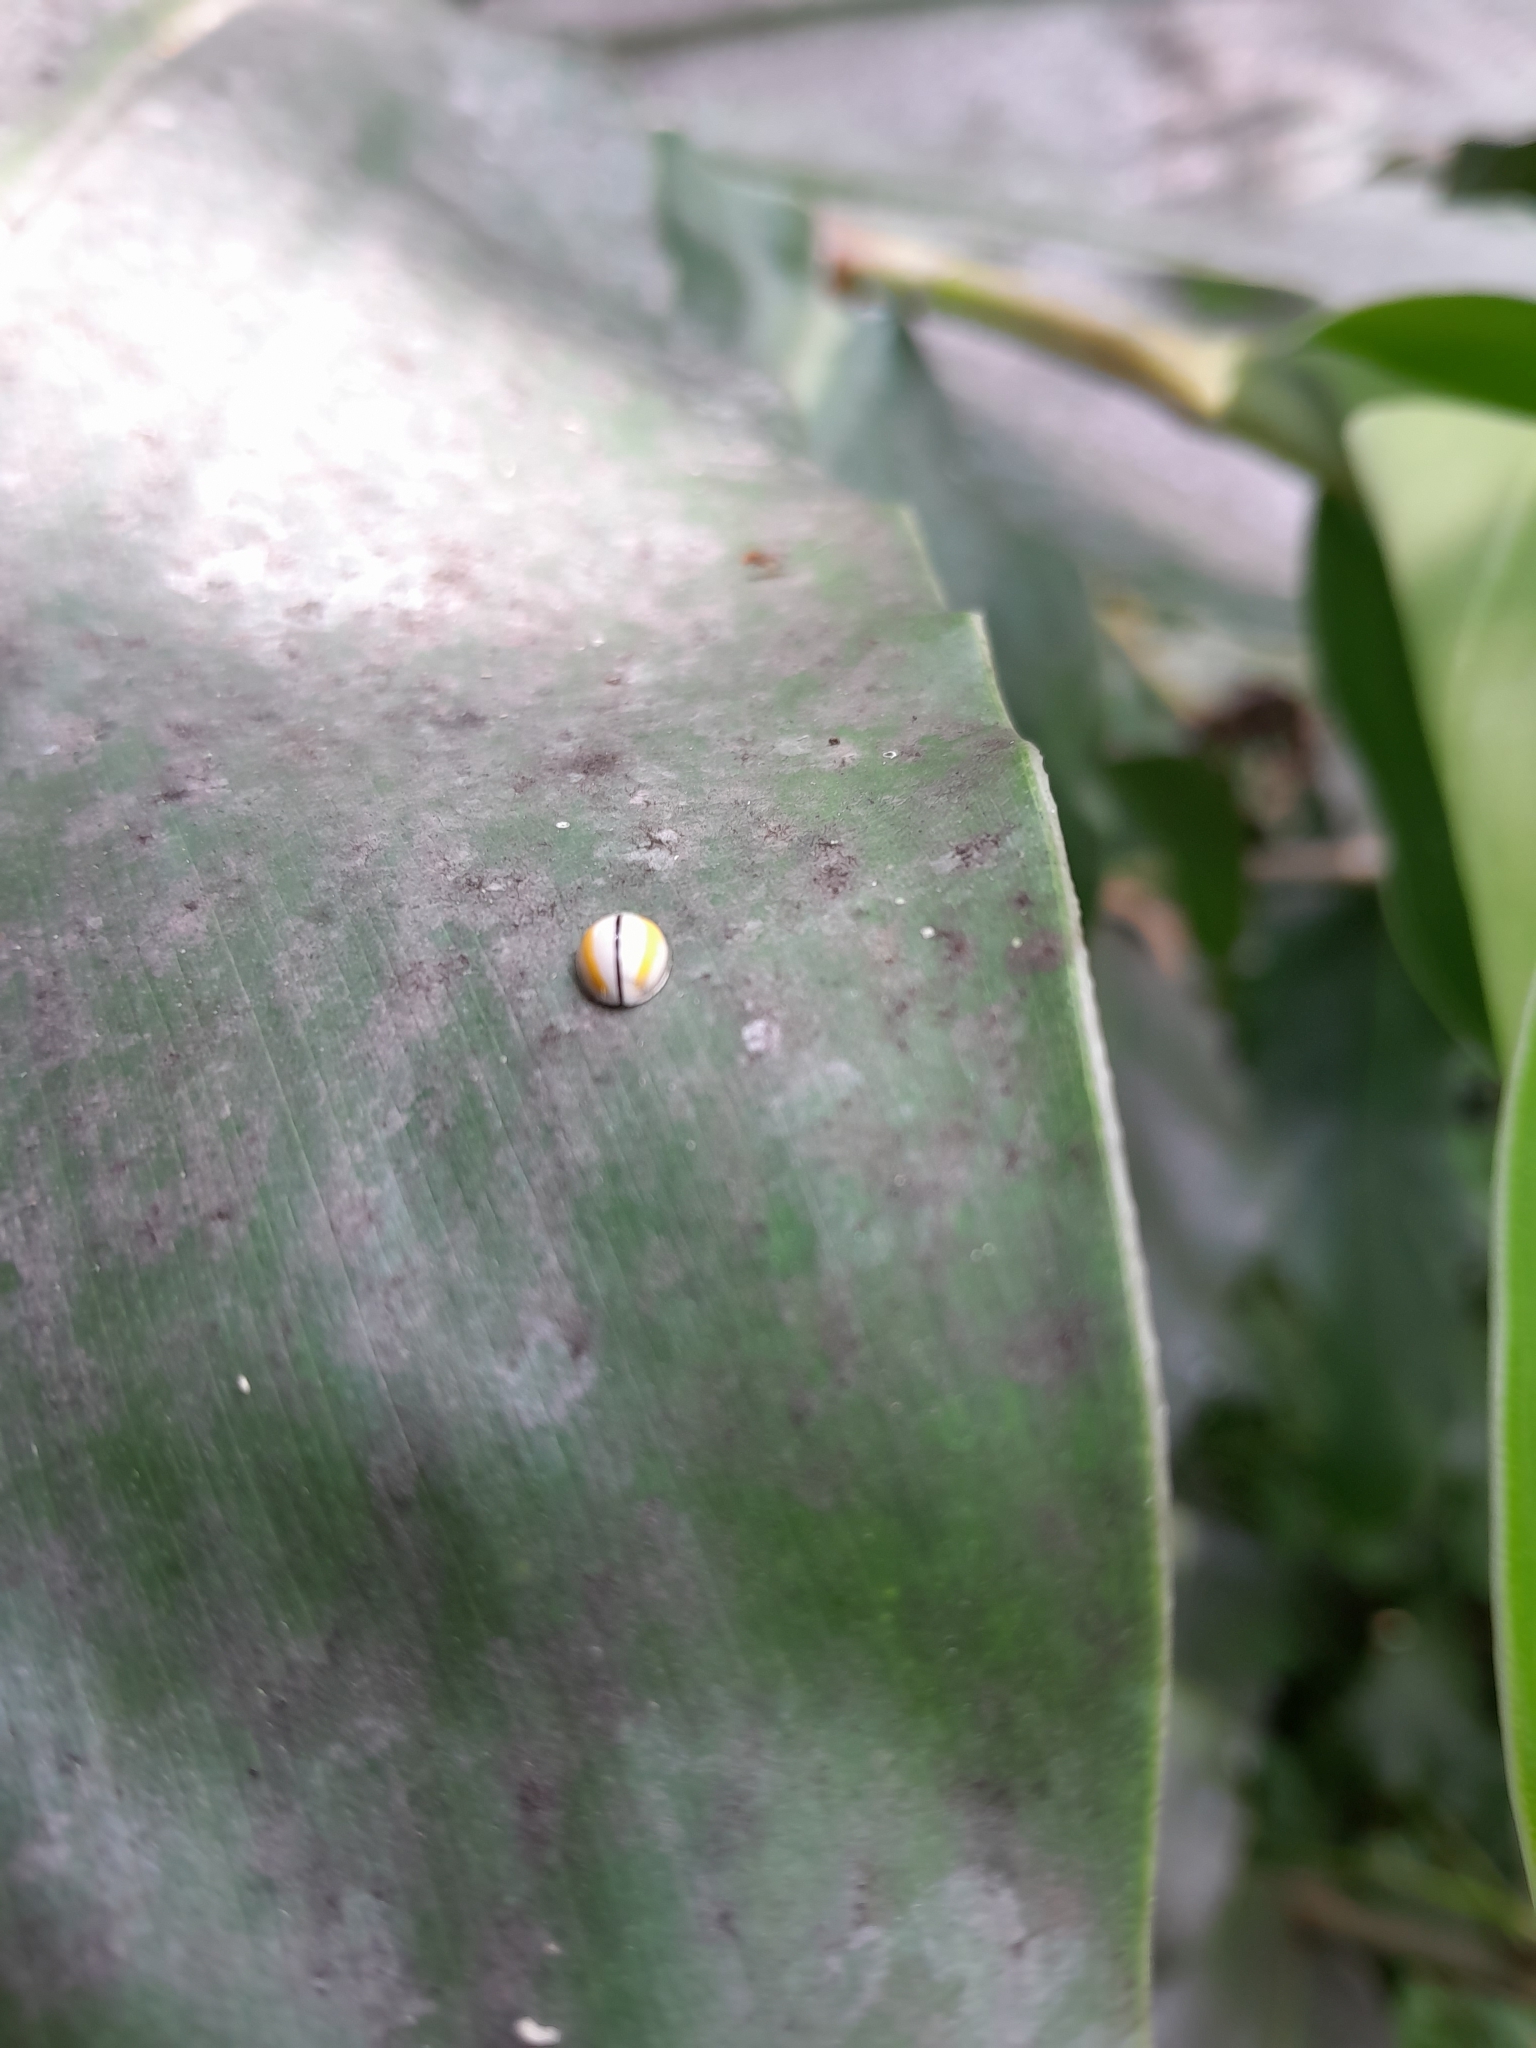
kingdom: Animalia
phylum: Arthropoda
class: Insecta
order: Coleoptera
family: Coccinellidae
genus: Oenopia
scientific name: Oenopia
